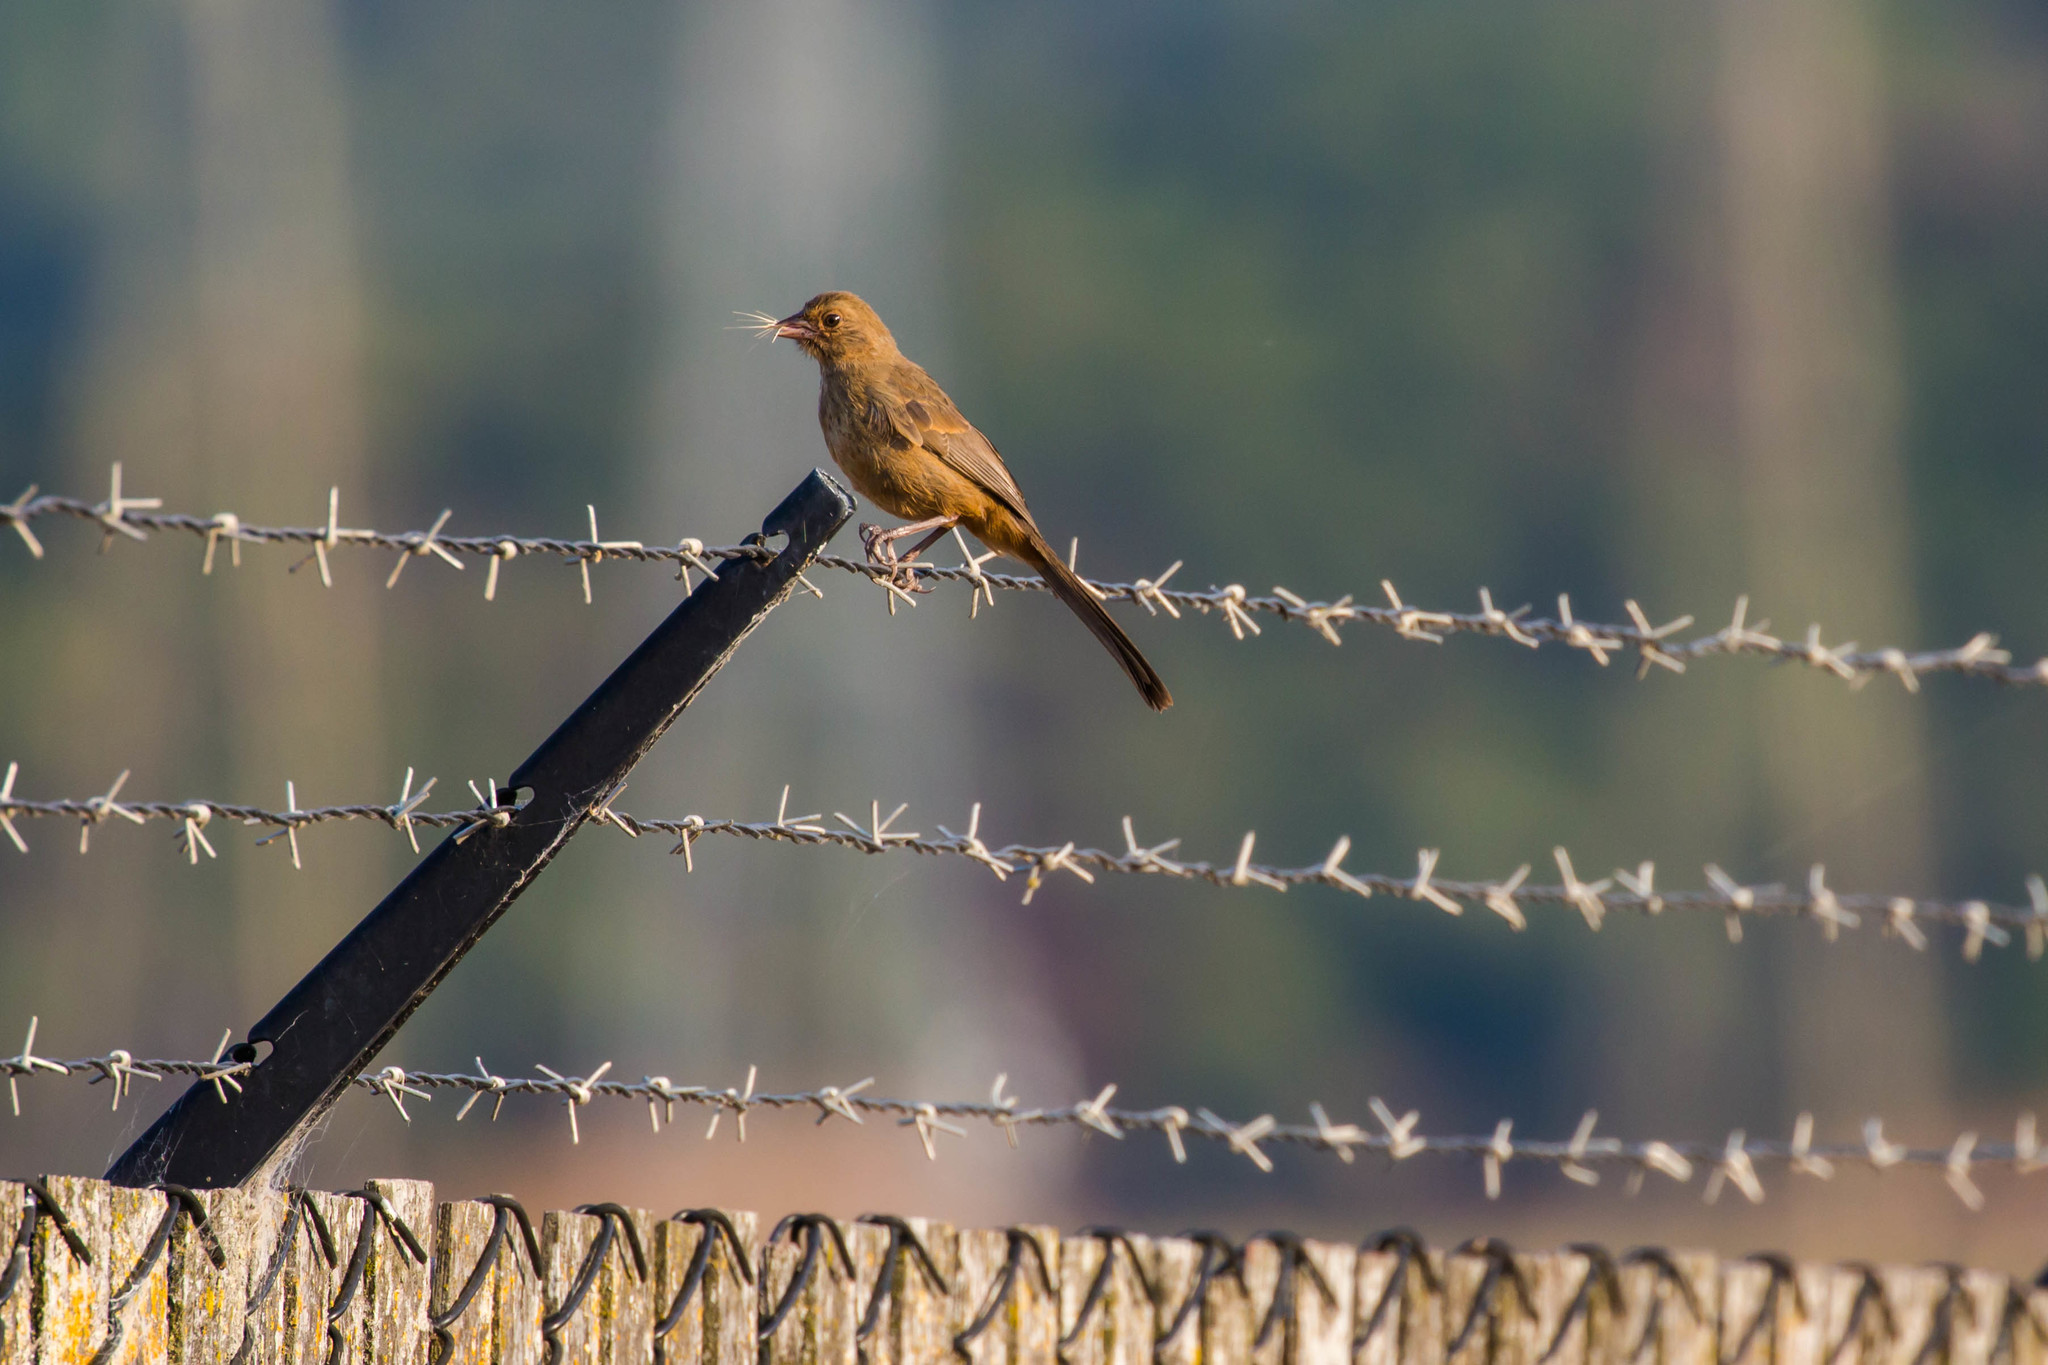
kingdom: Animalia
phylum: Chordata
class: Aves
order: Passeriformes
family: Passerellidae
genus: Melozone
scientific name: Melozone crissalis
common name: California towhee
